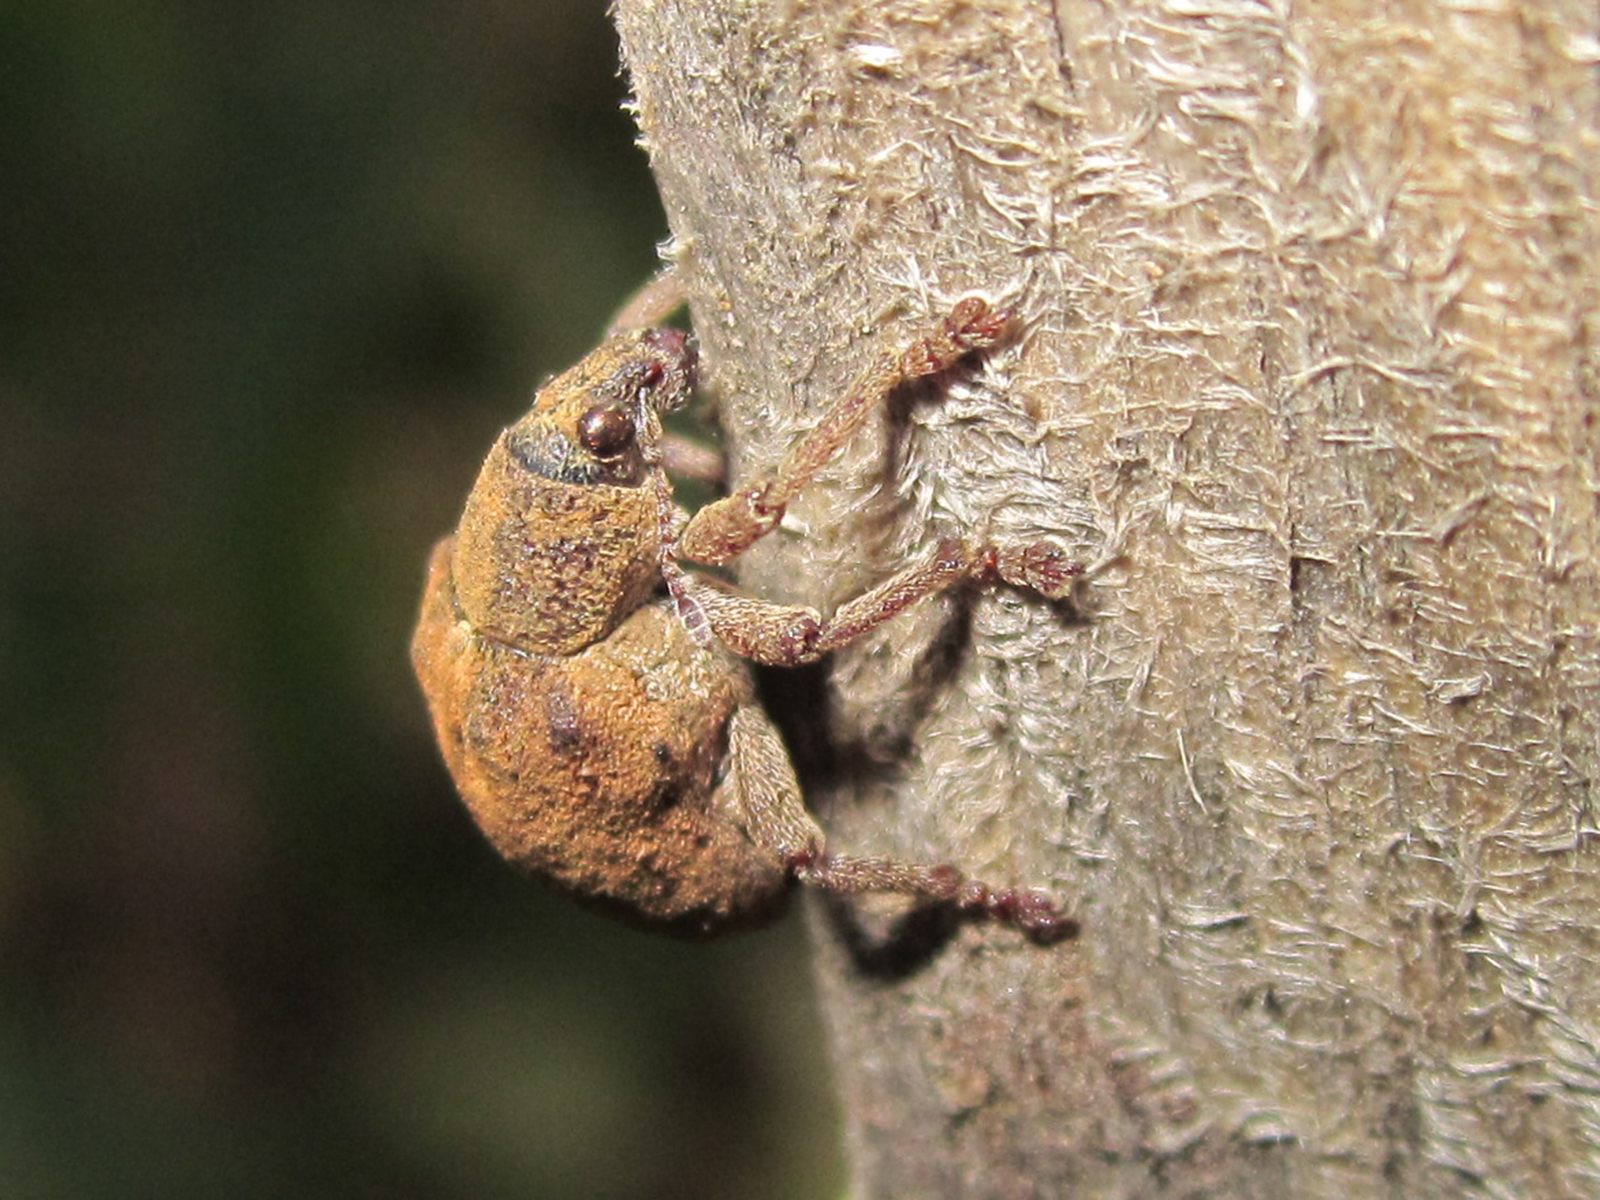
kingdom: Animalia
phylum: Arthropoda
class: Insecta
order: Coleoptera
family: Curculionidae
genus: Gonipterus
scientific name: Gonipterus platensis
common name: Eucalyptus snout beetle
